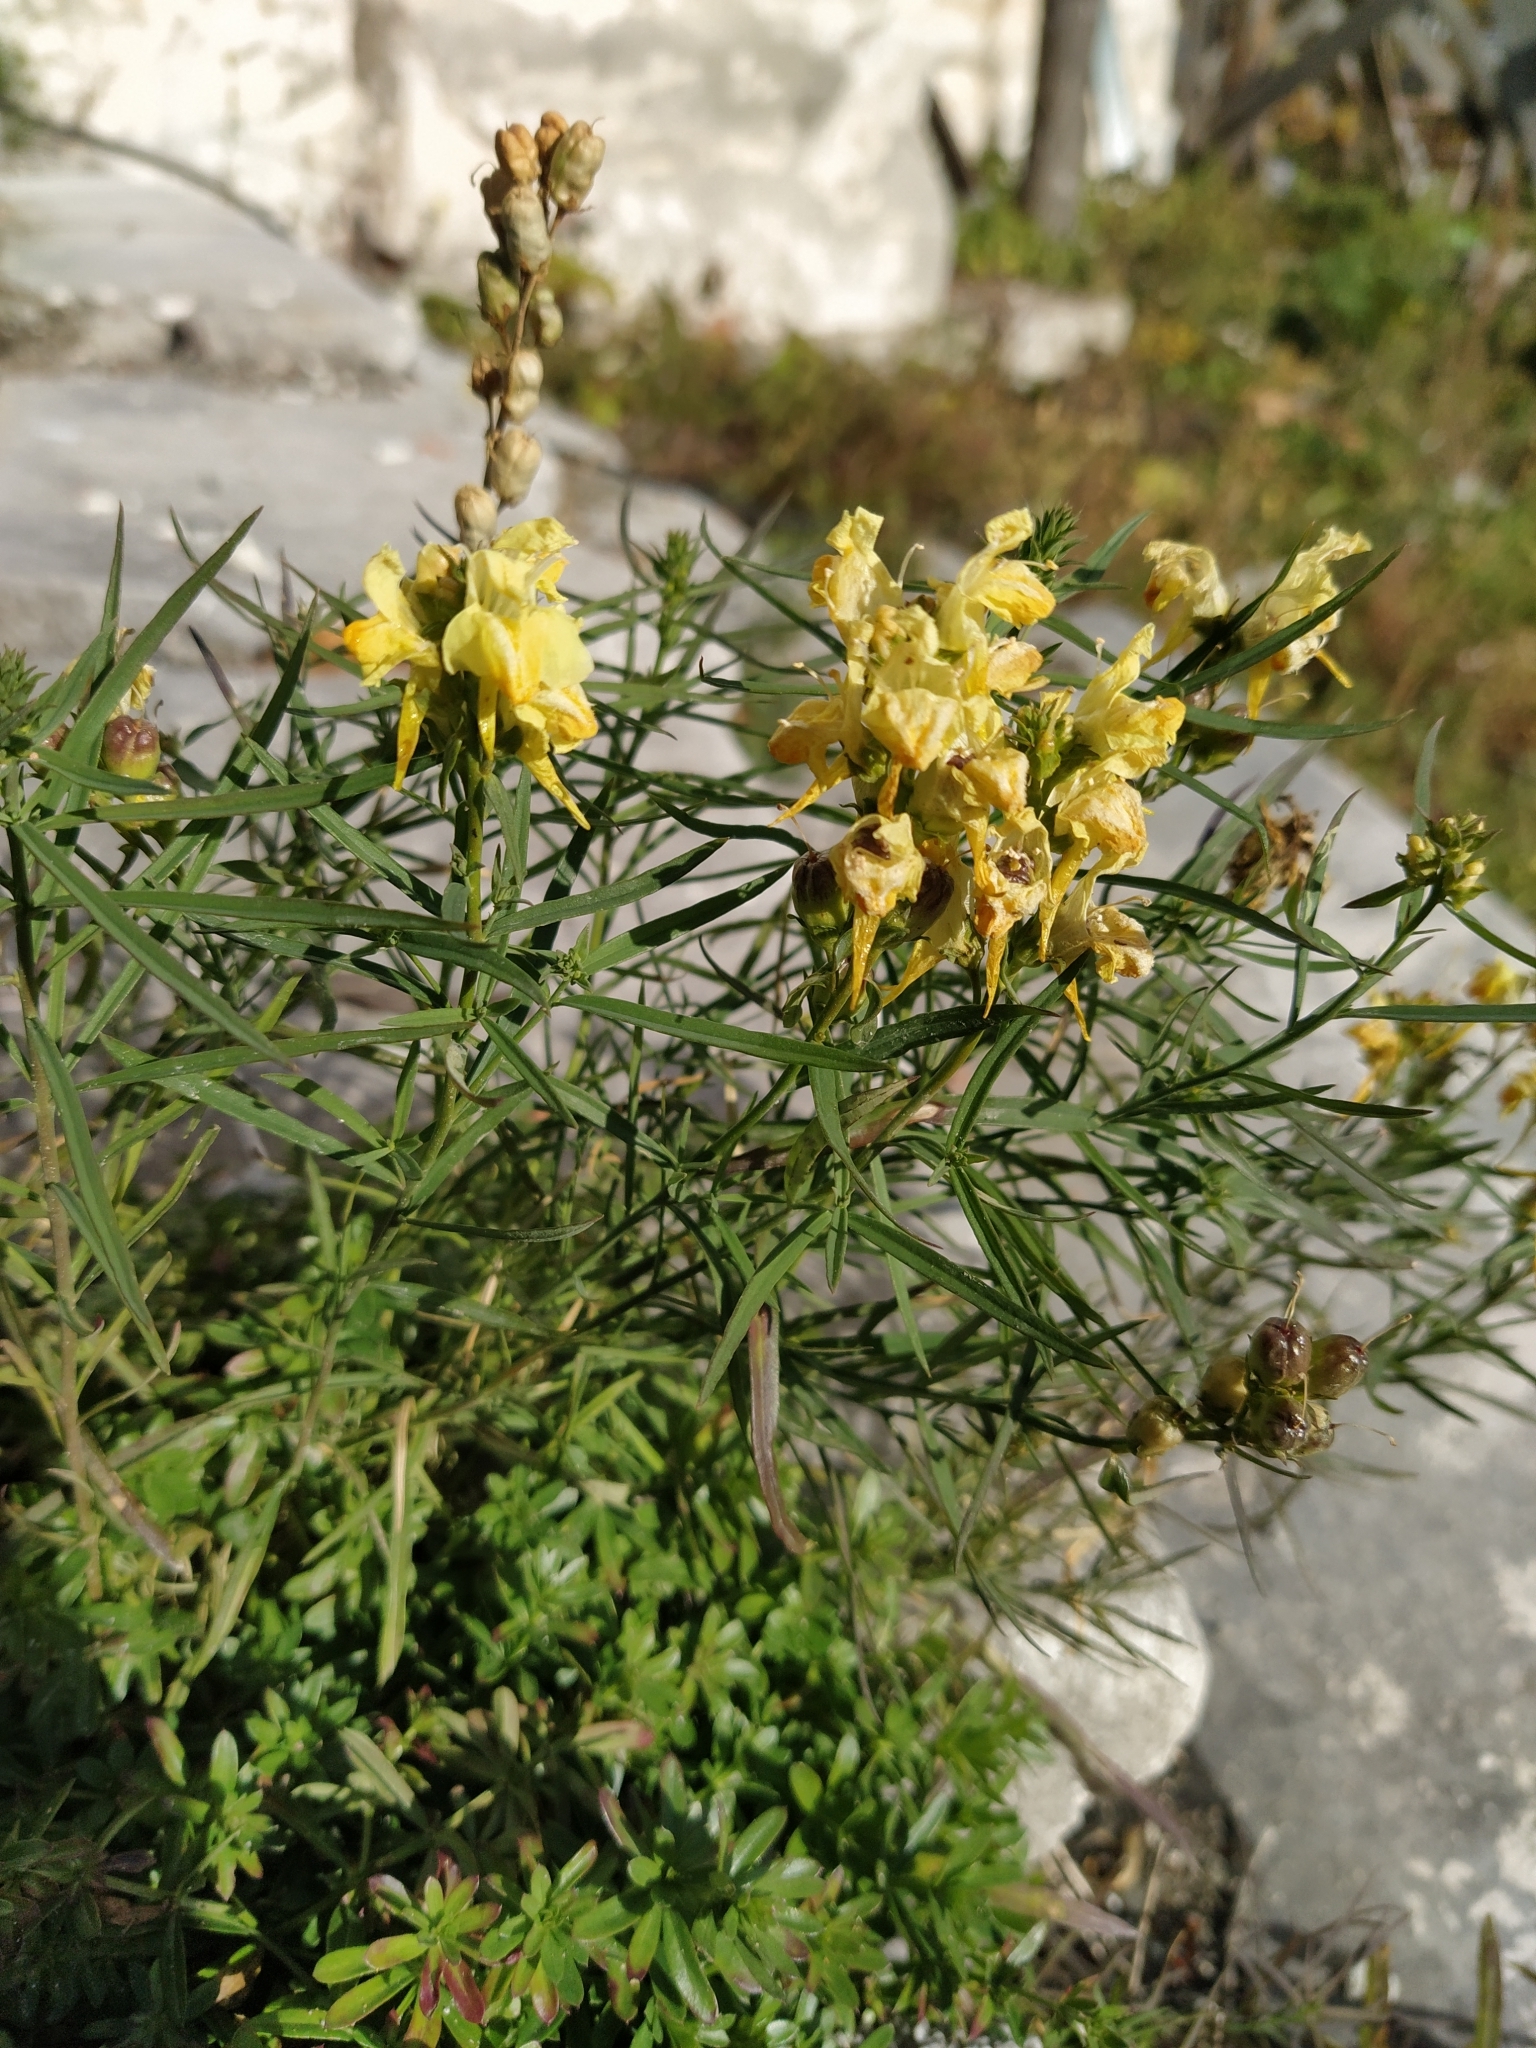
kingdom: Plantae
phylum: Tracheophyta
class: Magnoliopsida
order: Lamiales
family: Plantaginaceae
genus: Linaria
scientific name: Linaria vulgaris
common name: Butter and eggs
